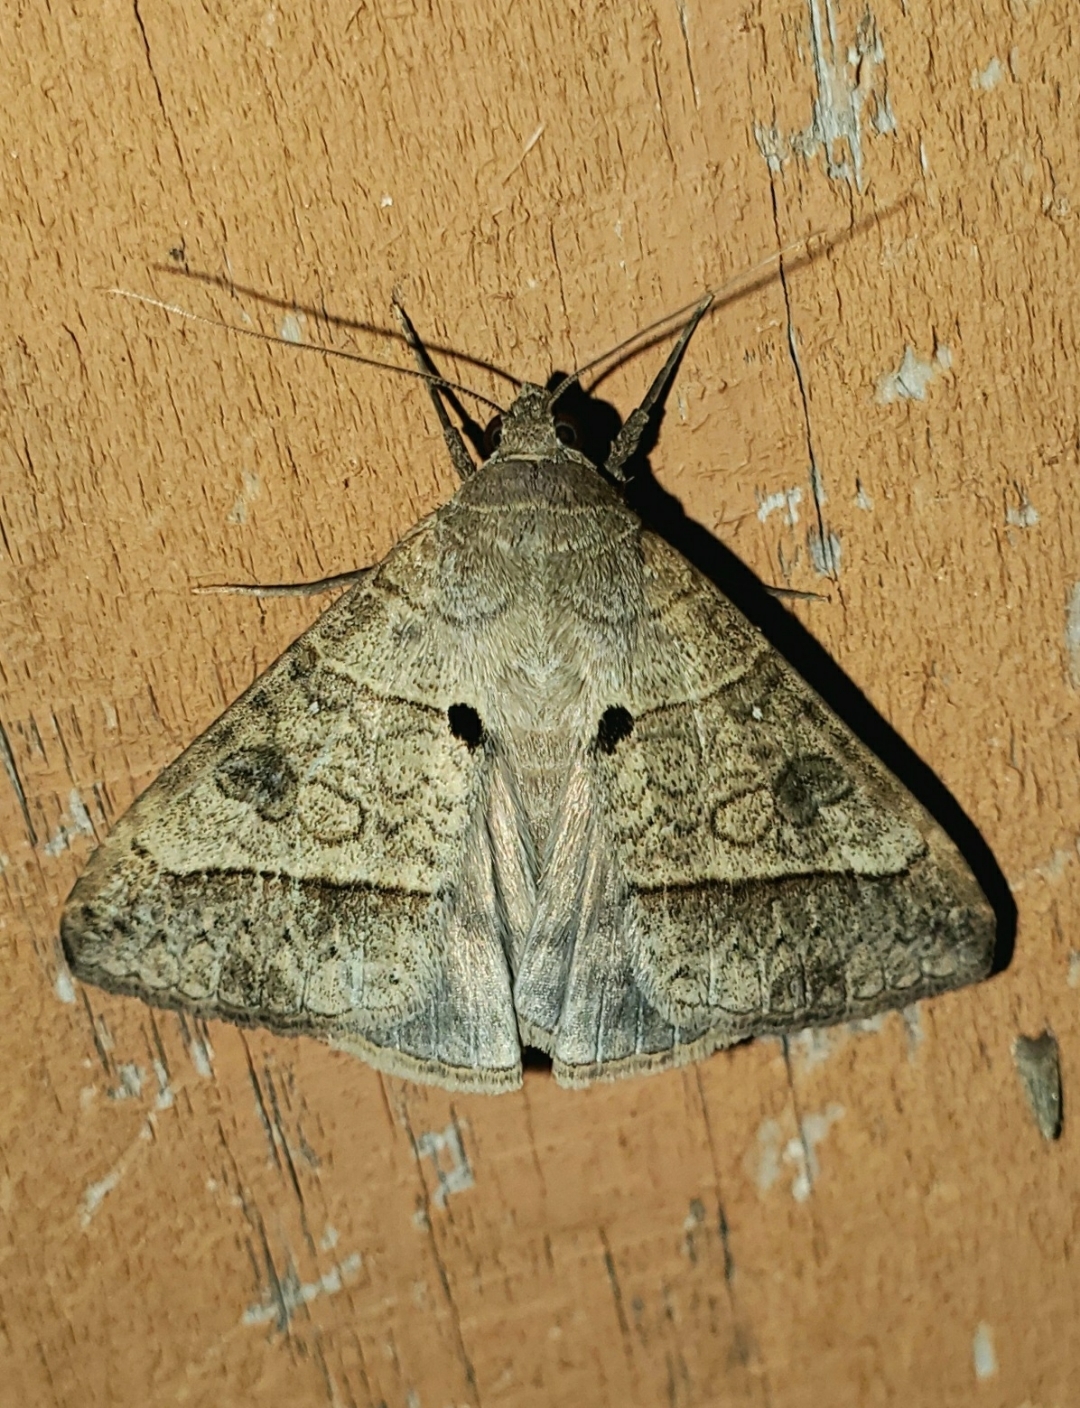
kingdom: Animalia
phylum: Arthropoda
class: Insecta
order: Lepidoptera
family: Erebidae
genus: Mocis
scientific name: Mocis latipes
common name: Striped grass looper
